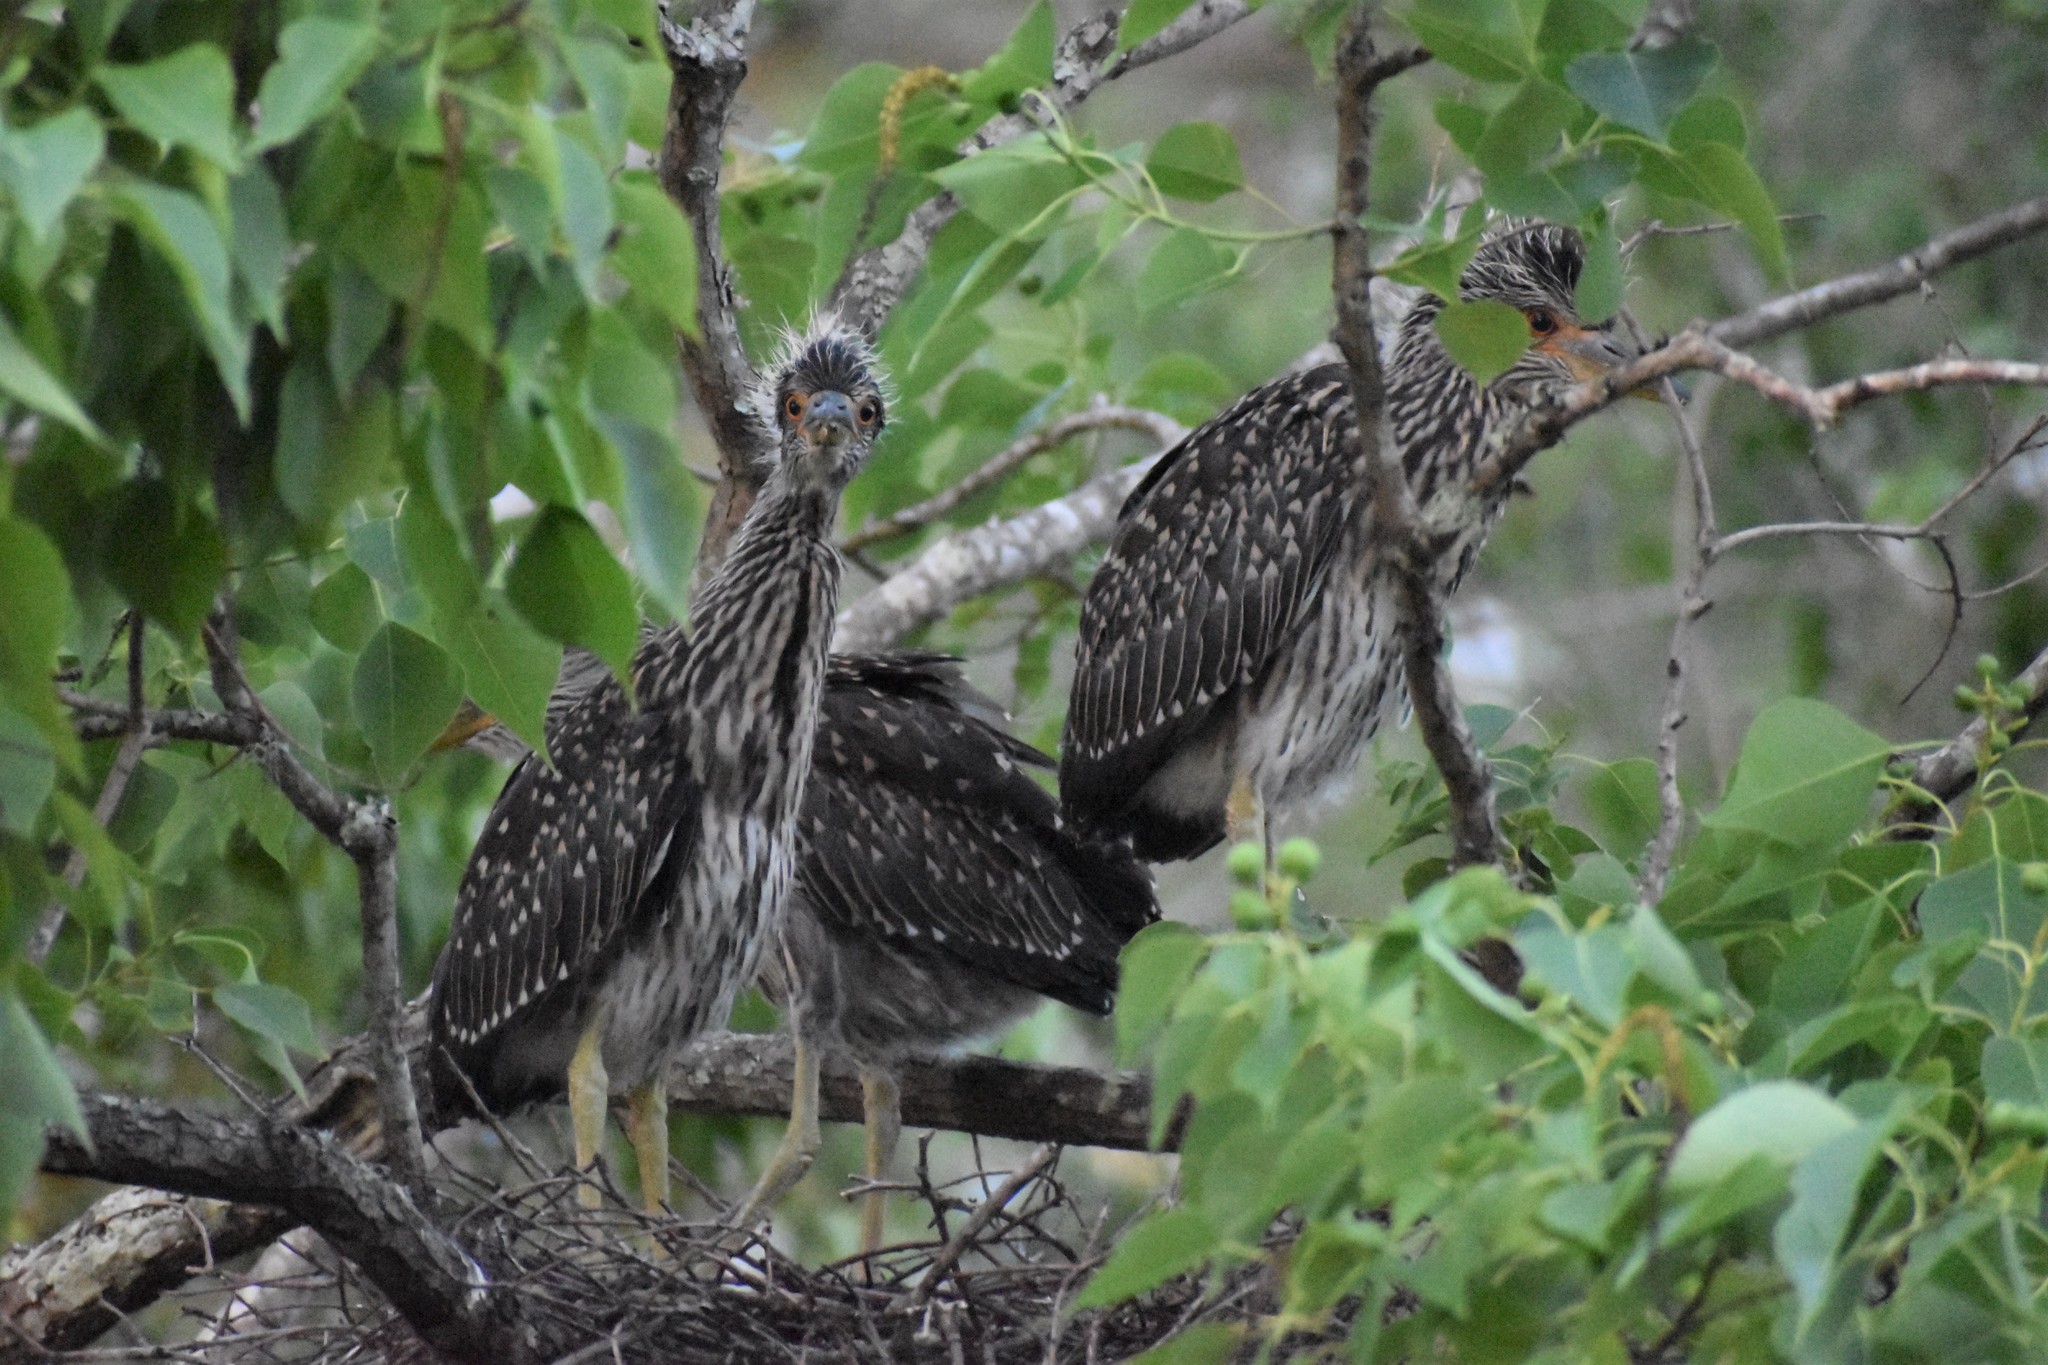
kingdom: Animalia
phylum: Chordata
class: Aves
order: Pelecaniformes
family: Ardeidae
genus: Nyctanassa
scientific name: Nyctanassa violacea
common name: Yellow-crowned night heron
